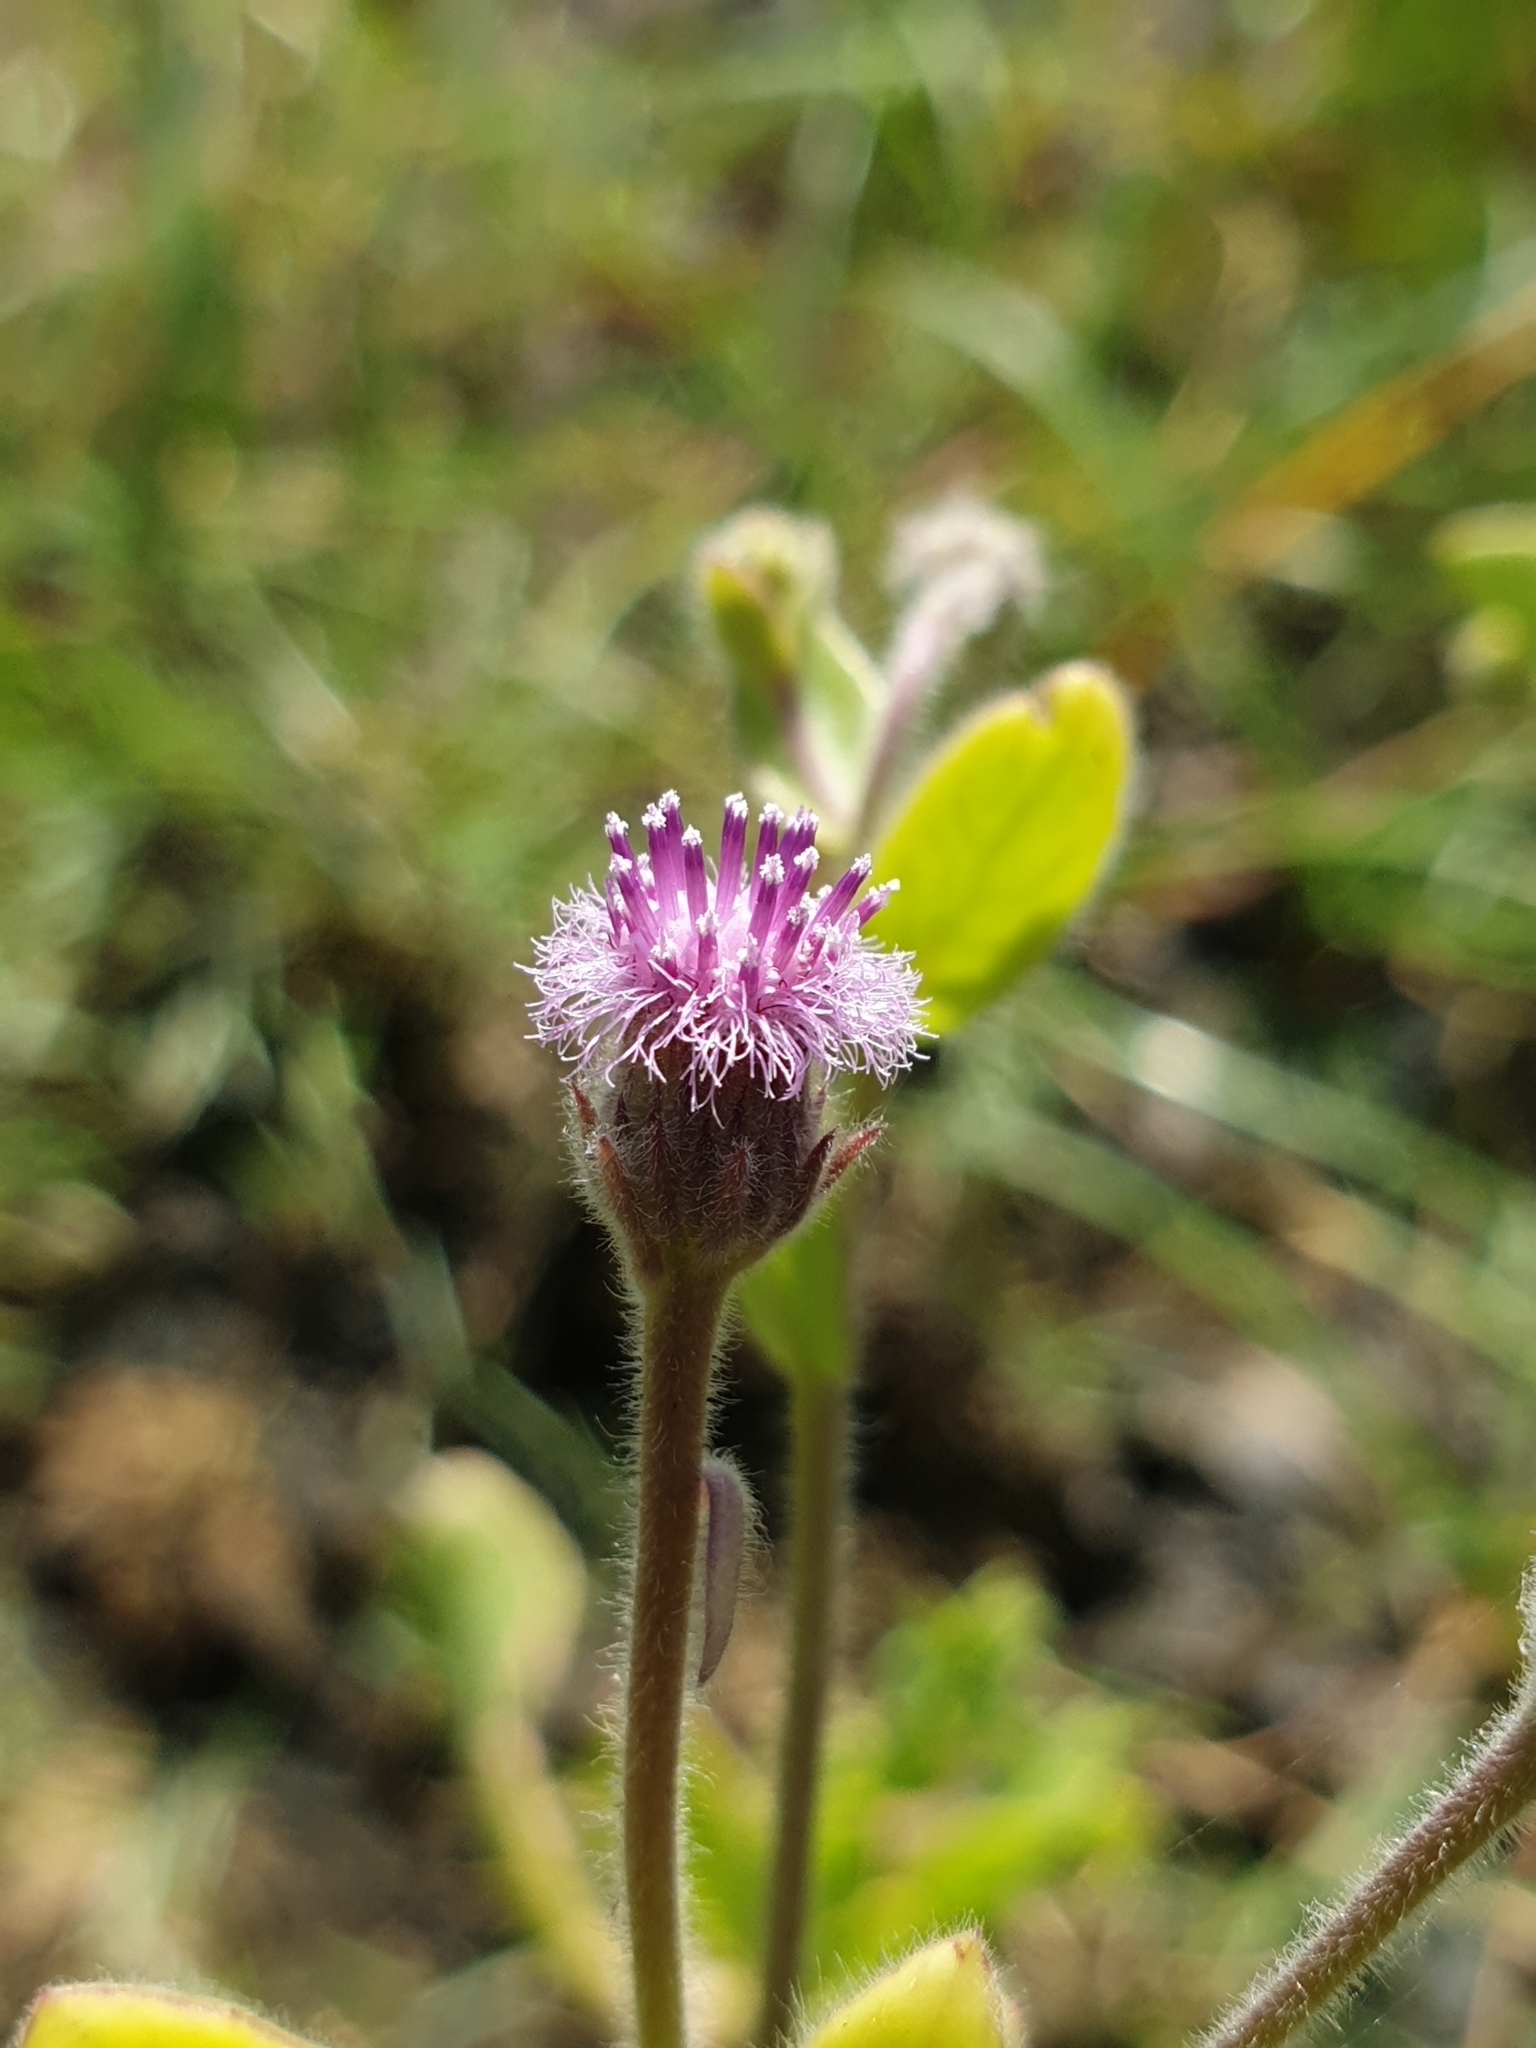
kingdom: Plantae
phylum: Tracheophyta
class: Magnoliopsida
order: Asterales
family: Asteraceae
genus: Blumea
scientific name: Blumea obliqua
